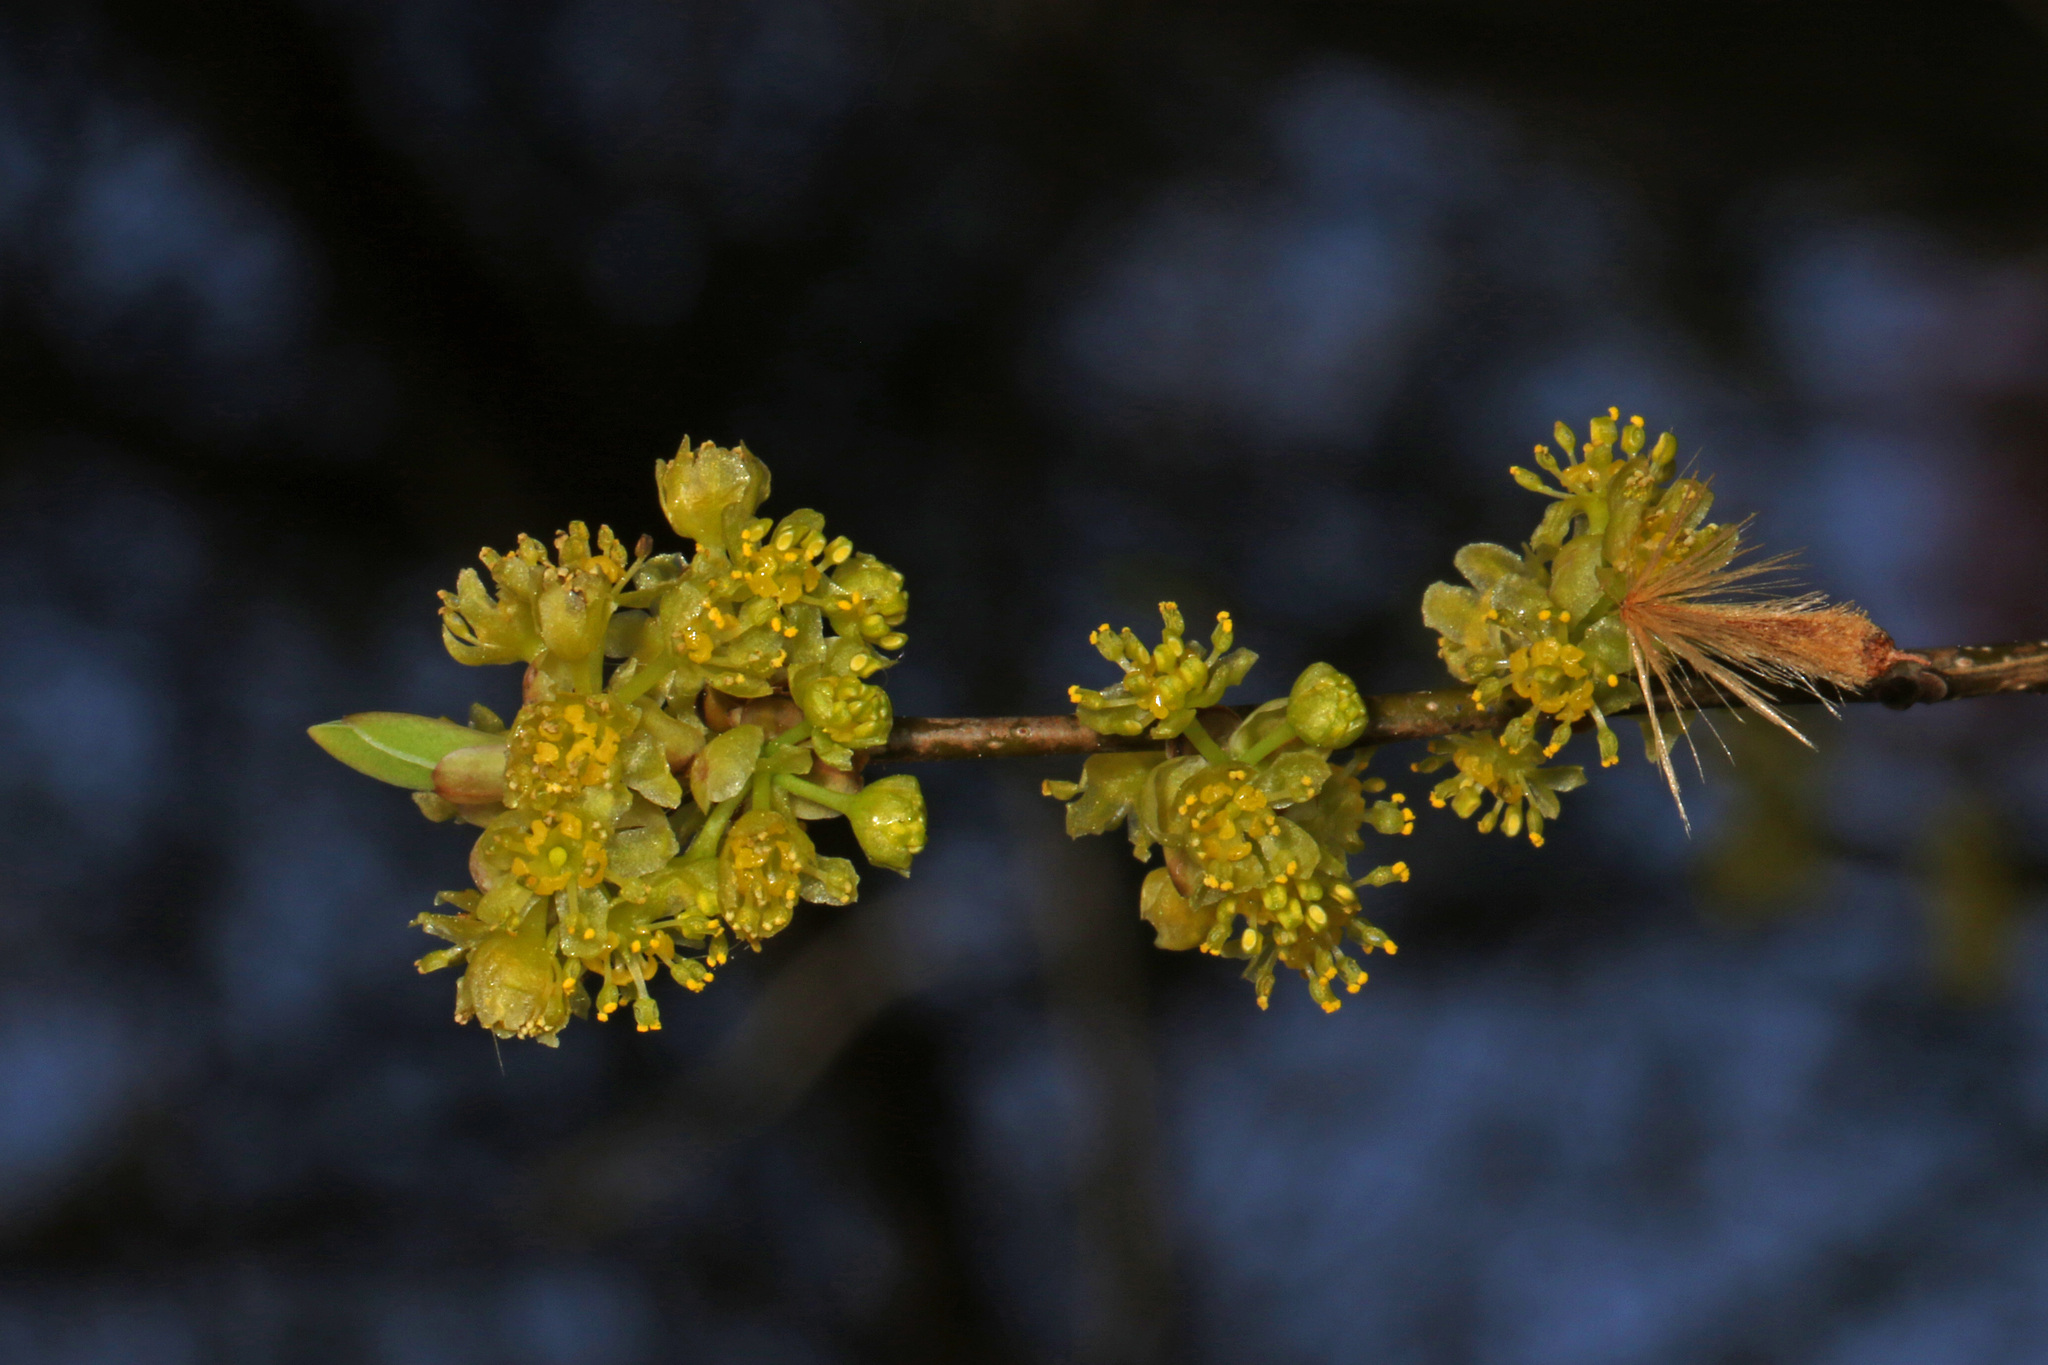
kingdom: Plantae
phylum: Tracheophyta
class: Magnoliopsida
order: Laurales
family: Lauraceae
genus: Lindera
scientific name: Lindera benzoin
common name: Spicebush
